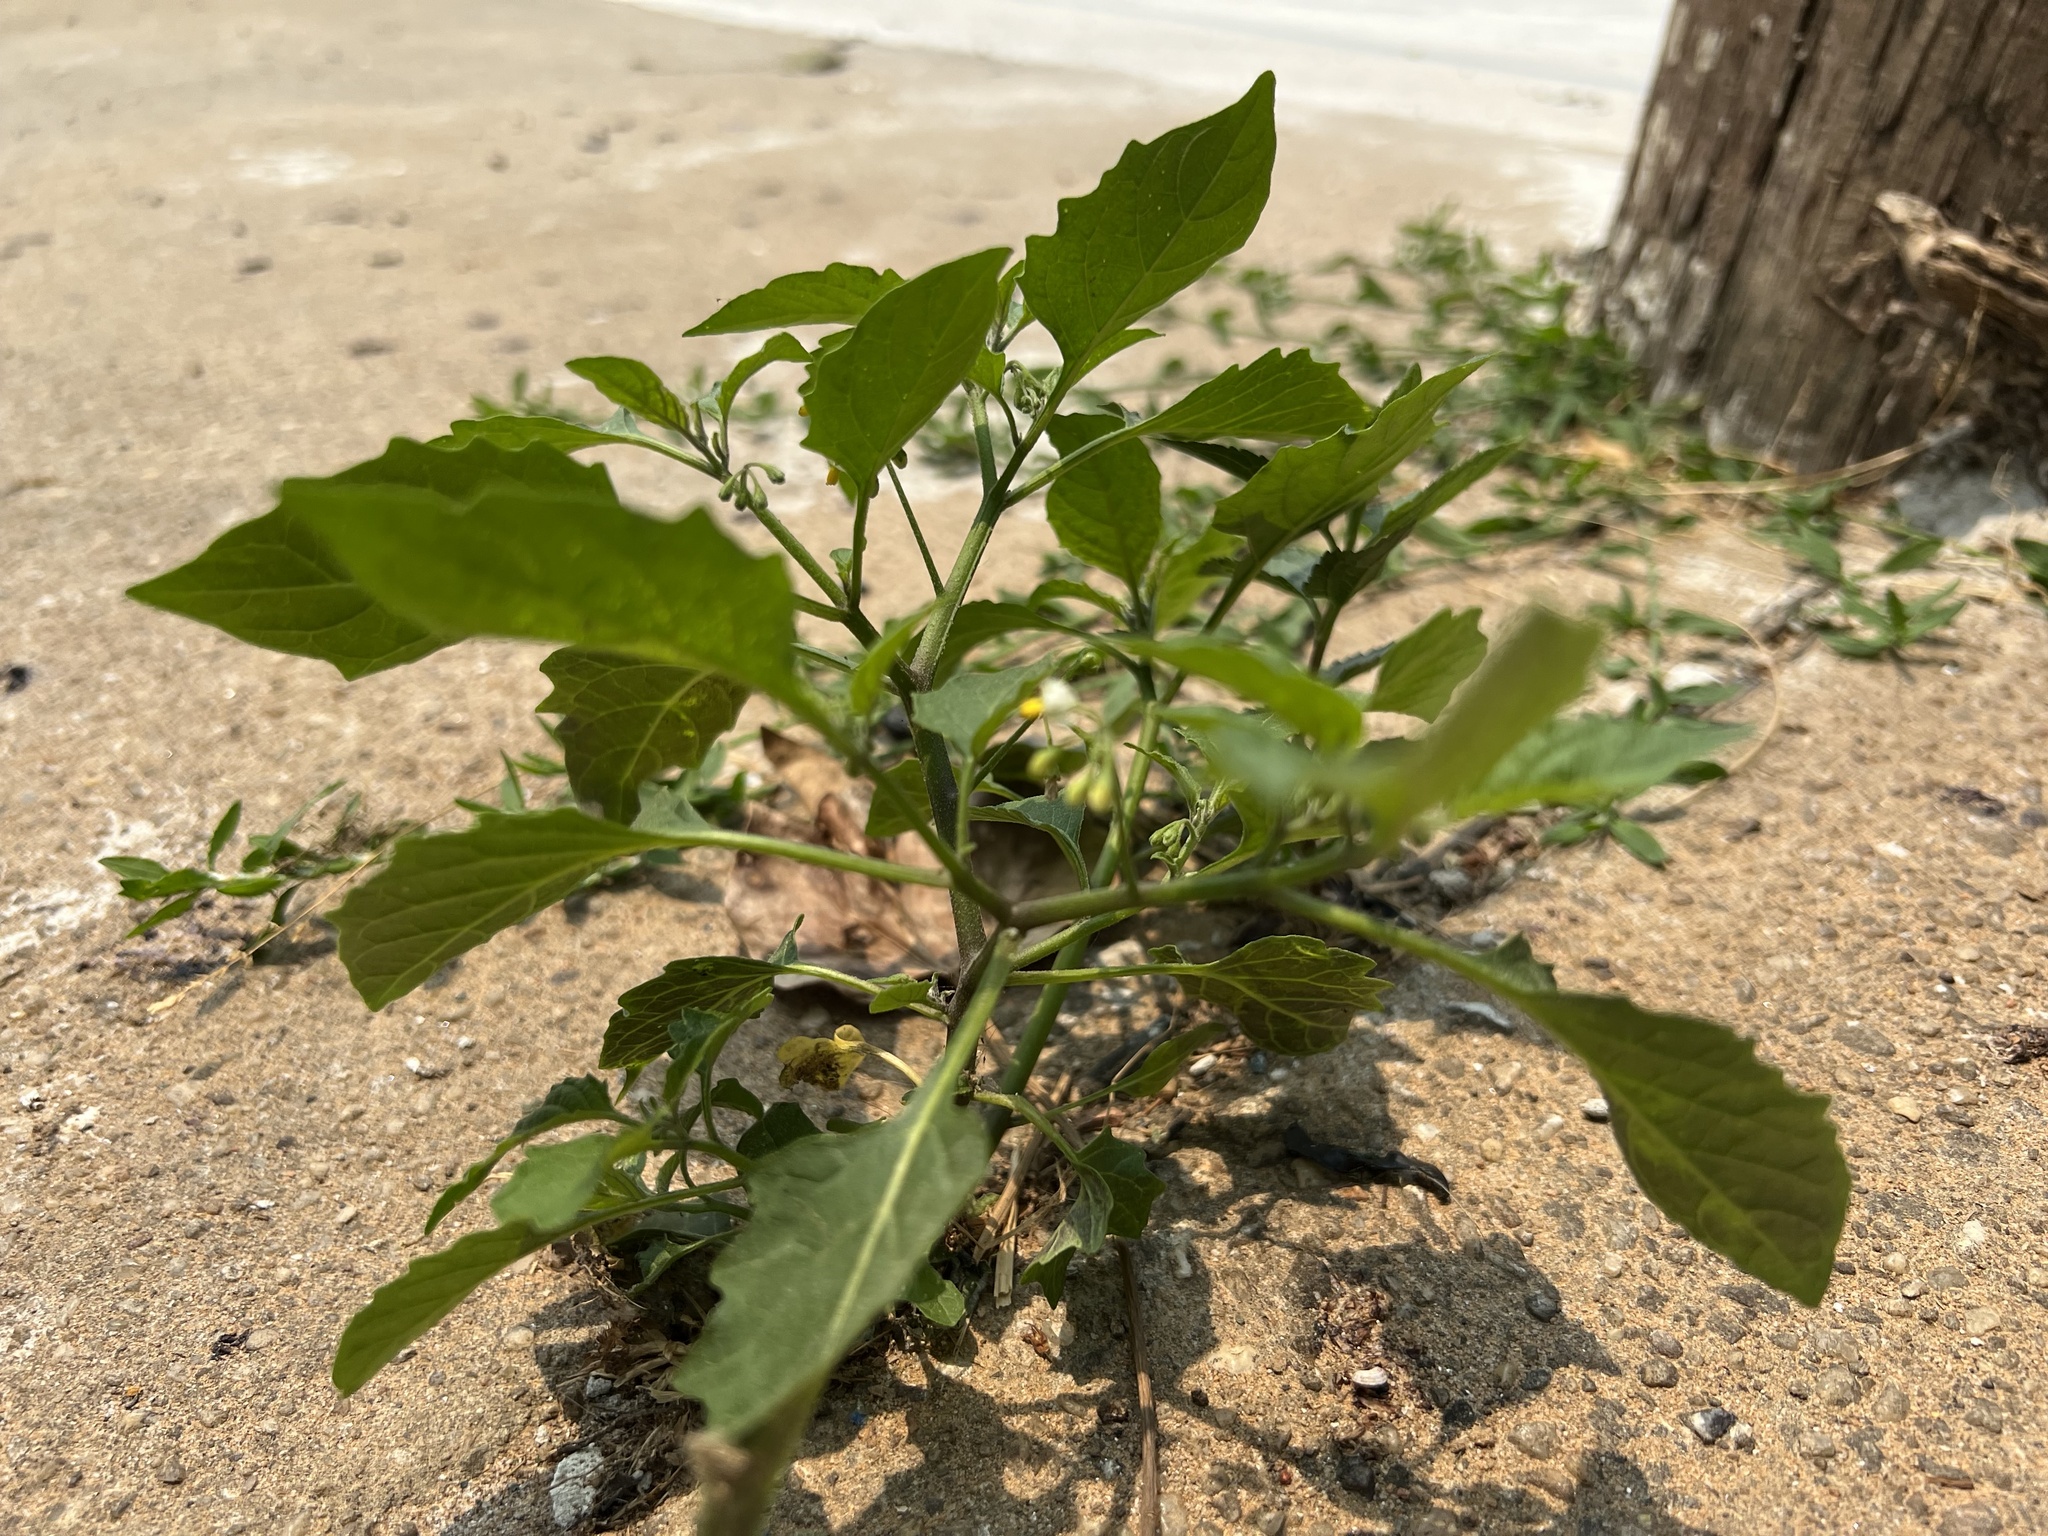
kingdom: Plantae
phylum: Tracheophyta
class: Magnoliopsida
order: Solanales
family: Solanaceae
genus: Solanum
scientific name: Solanum emulans
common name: Eastern black nightshade
